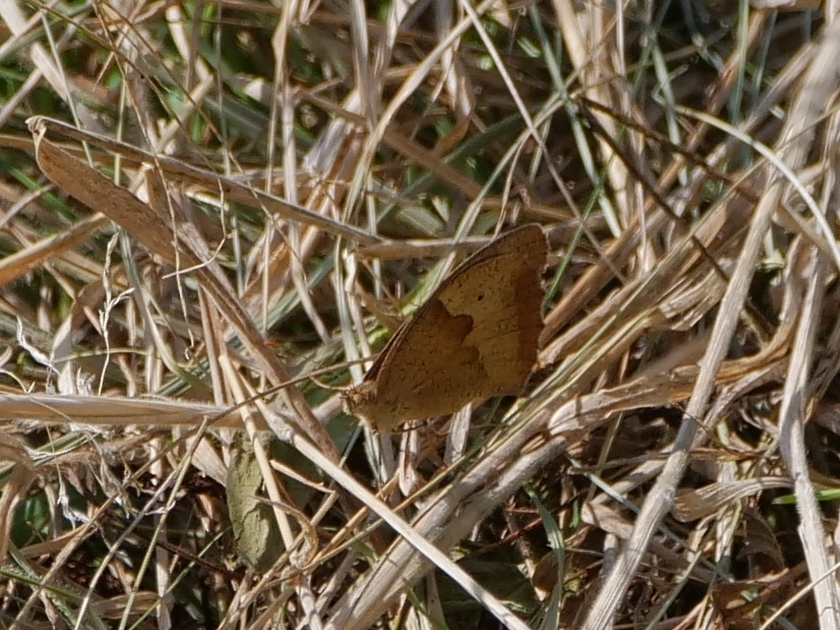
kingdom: Animalia
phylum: Arthropoda
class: Insecta
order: Lepidoptera
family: Nymphalidae
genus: Maniola
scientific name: Maniola jurtina
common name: Meadow brown
